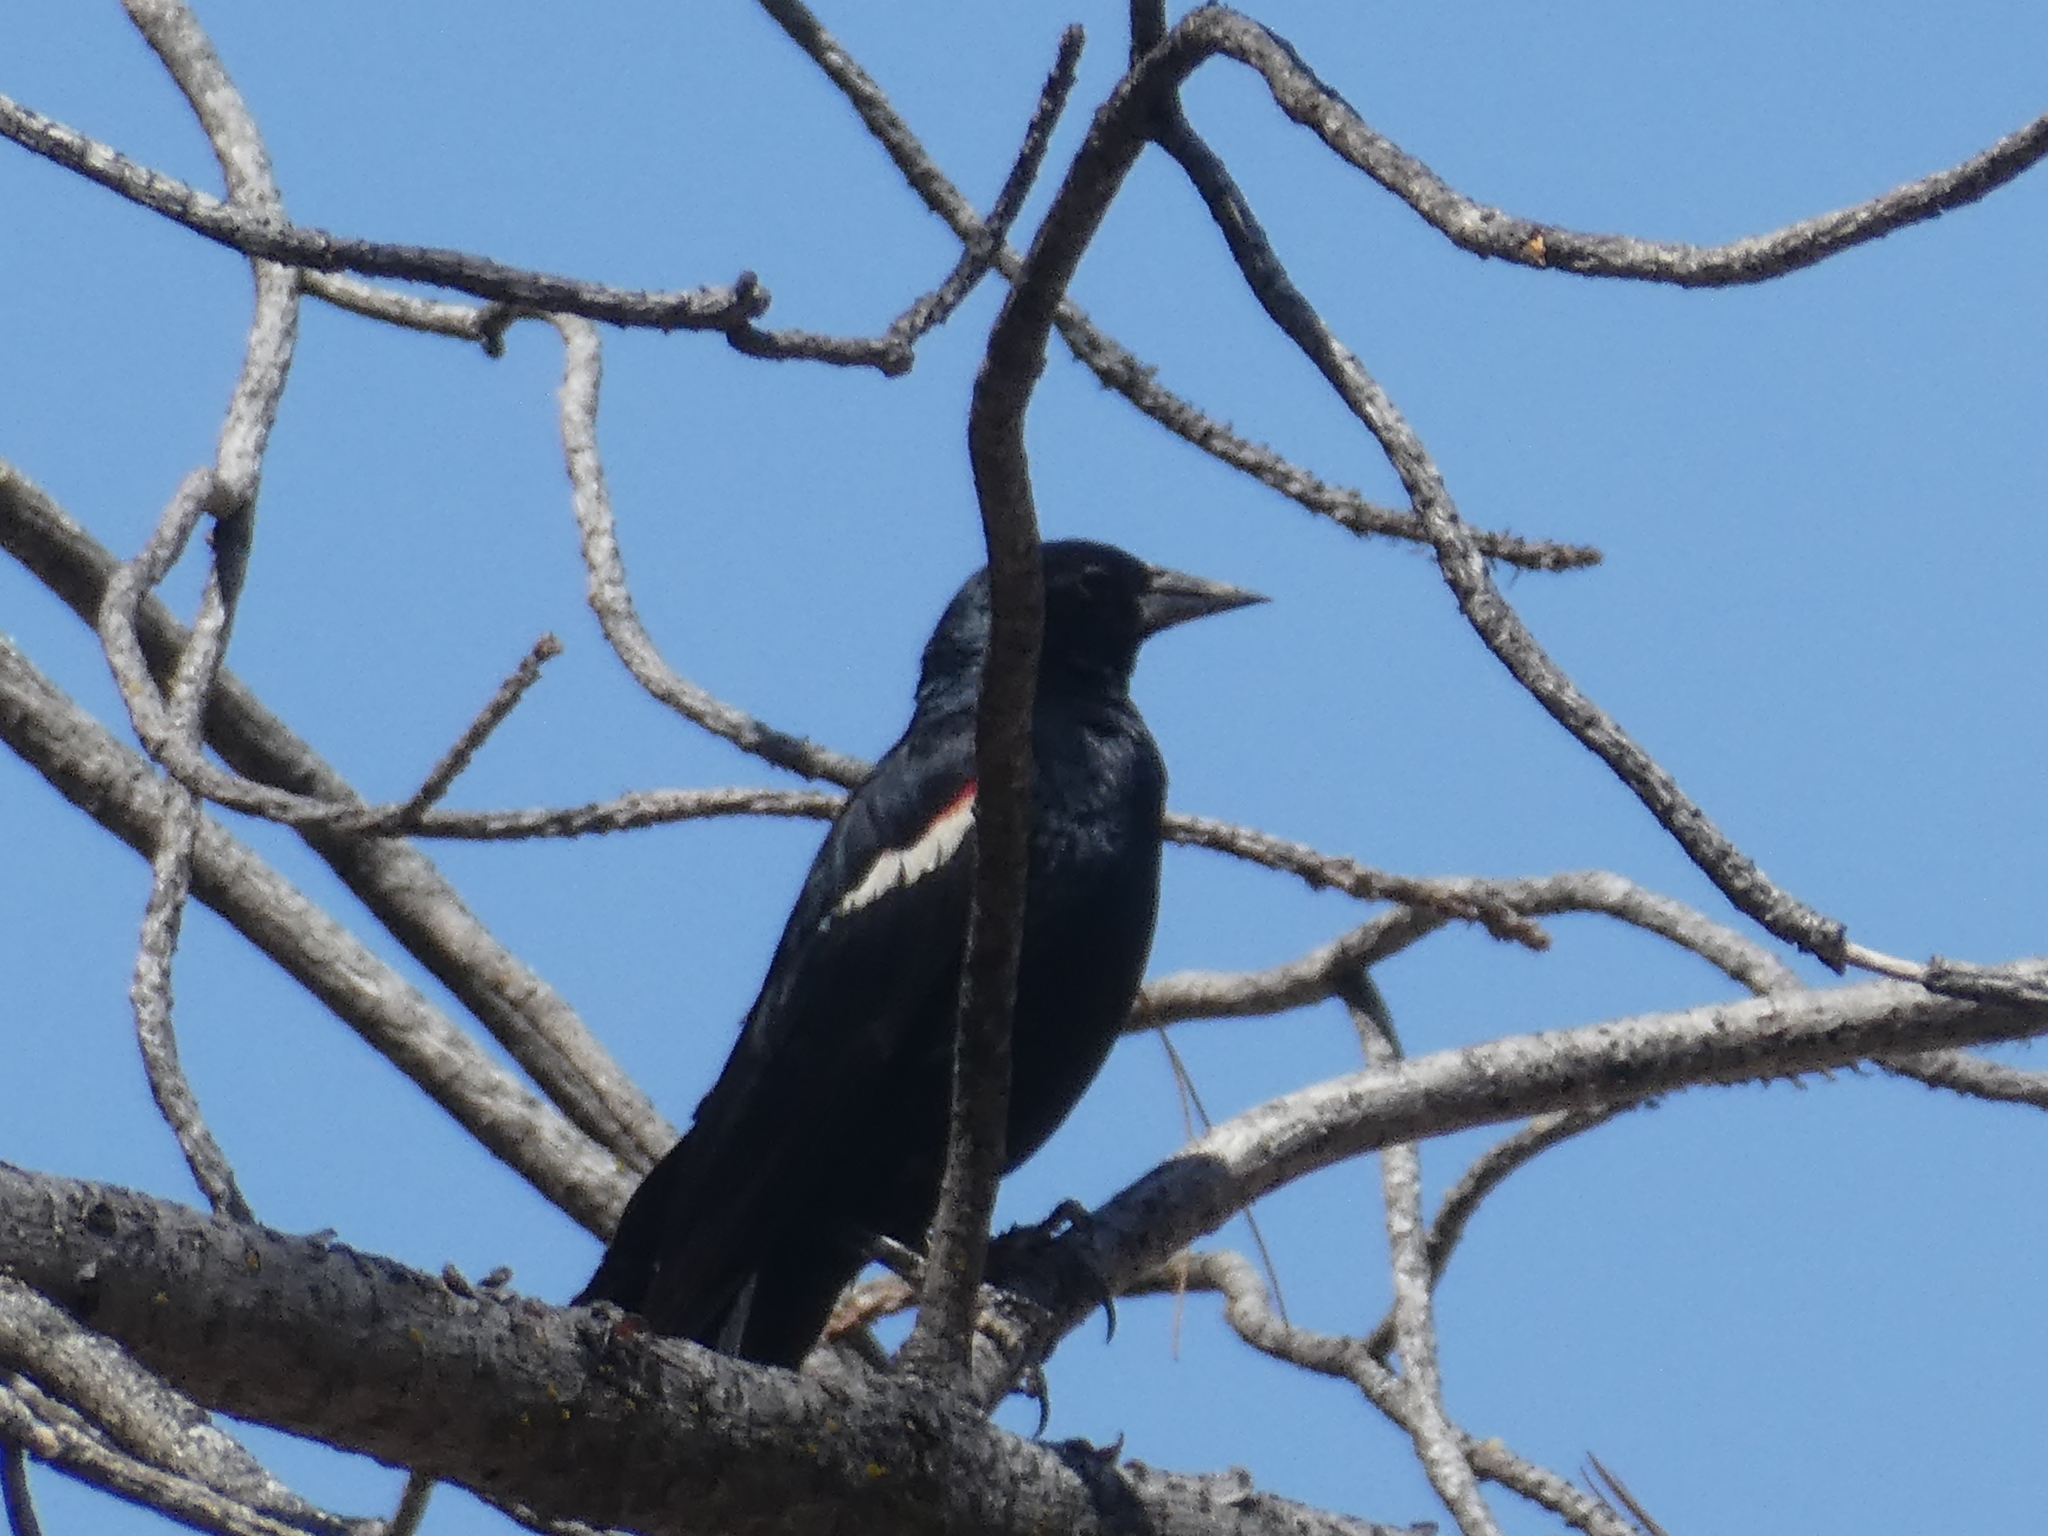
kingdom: Animalia
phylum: Chordata
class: Aves
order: Passeriformes
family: Icteridae
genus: Agelaius
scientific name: Agelaius tricolor
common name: Tricolored blackbird
